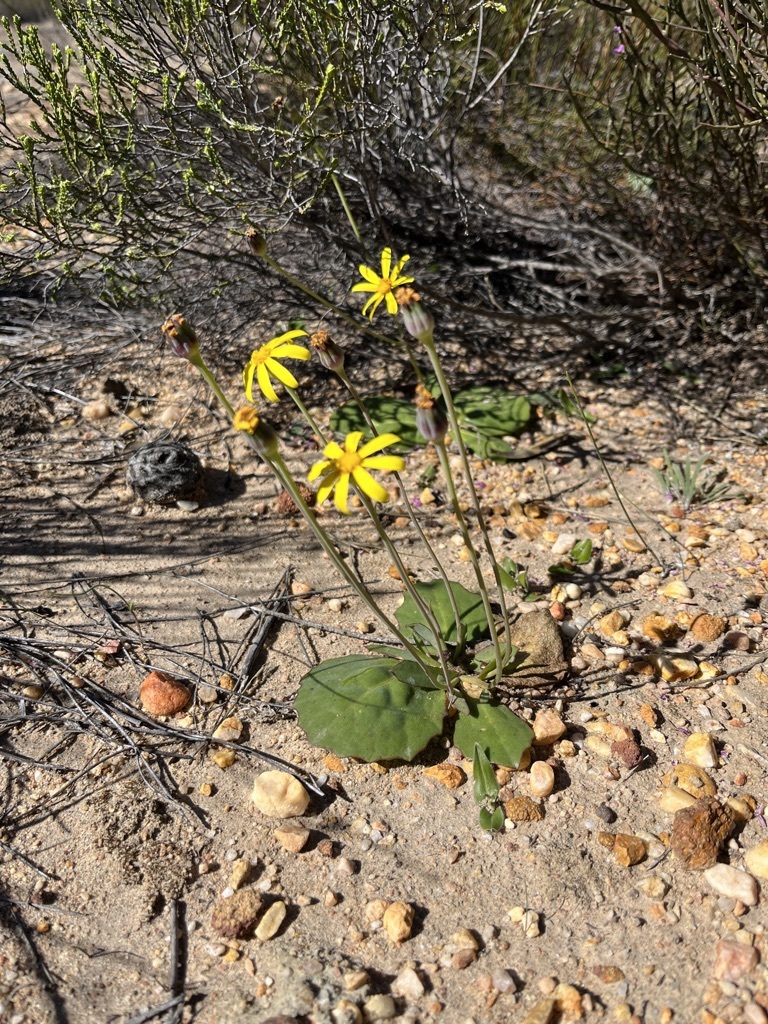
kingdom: Plantae
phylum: Tracheophyta
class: Magnoliopsida
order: Asterales
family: Asteraceae
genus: Othonna
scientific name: Othonna oleracea
